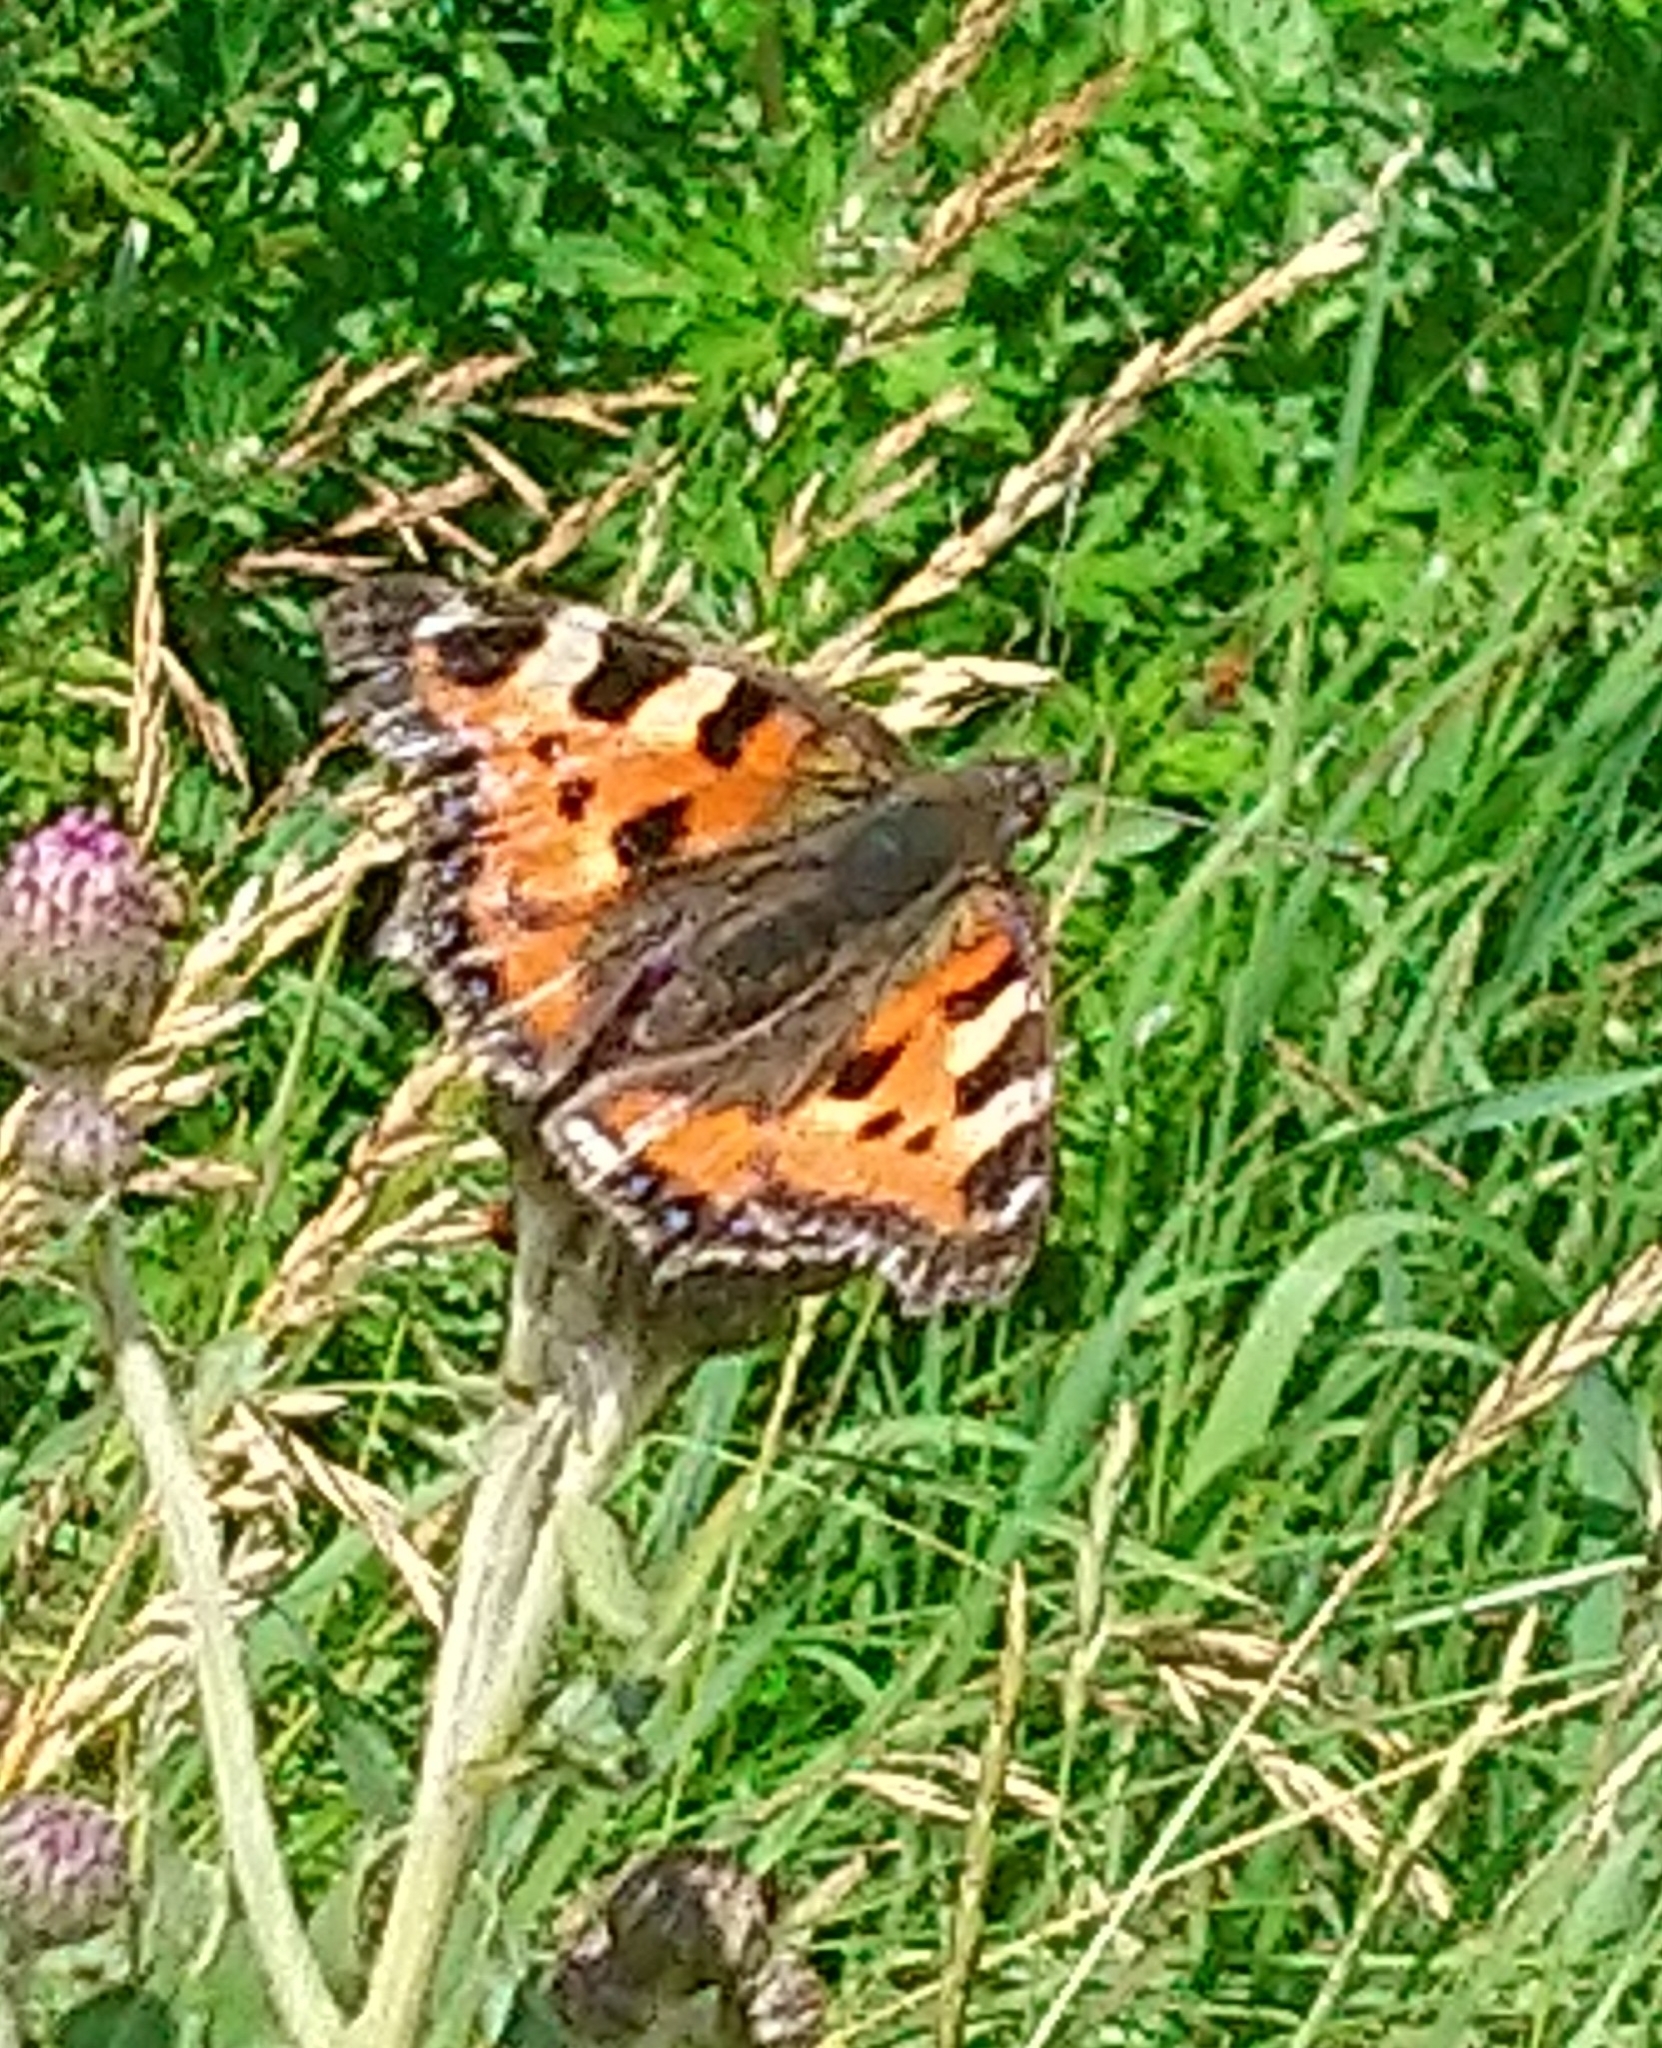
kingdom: Animalia
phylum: Arthropoda
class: Insecta
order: Lepidoptera
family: Nymphalidae
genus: Aglais
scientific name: Aglais urticae
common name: Small tortoiseshell
